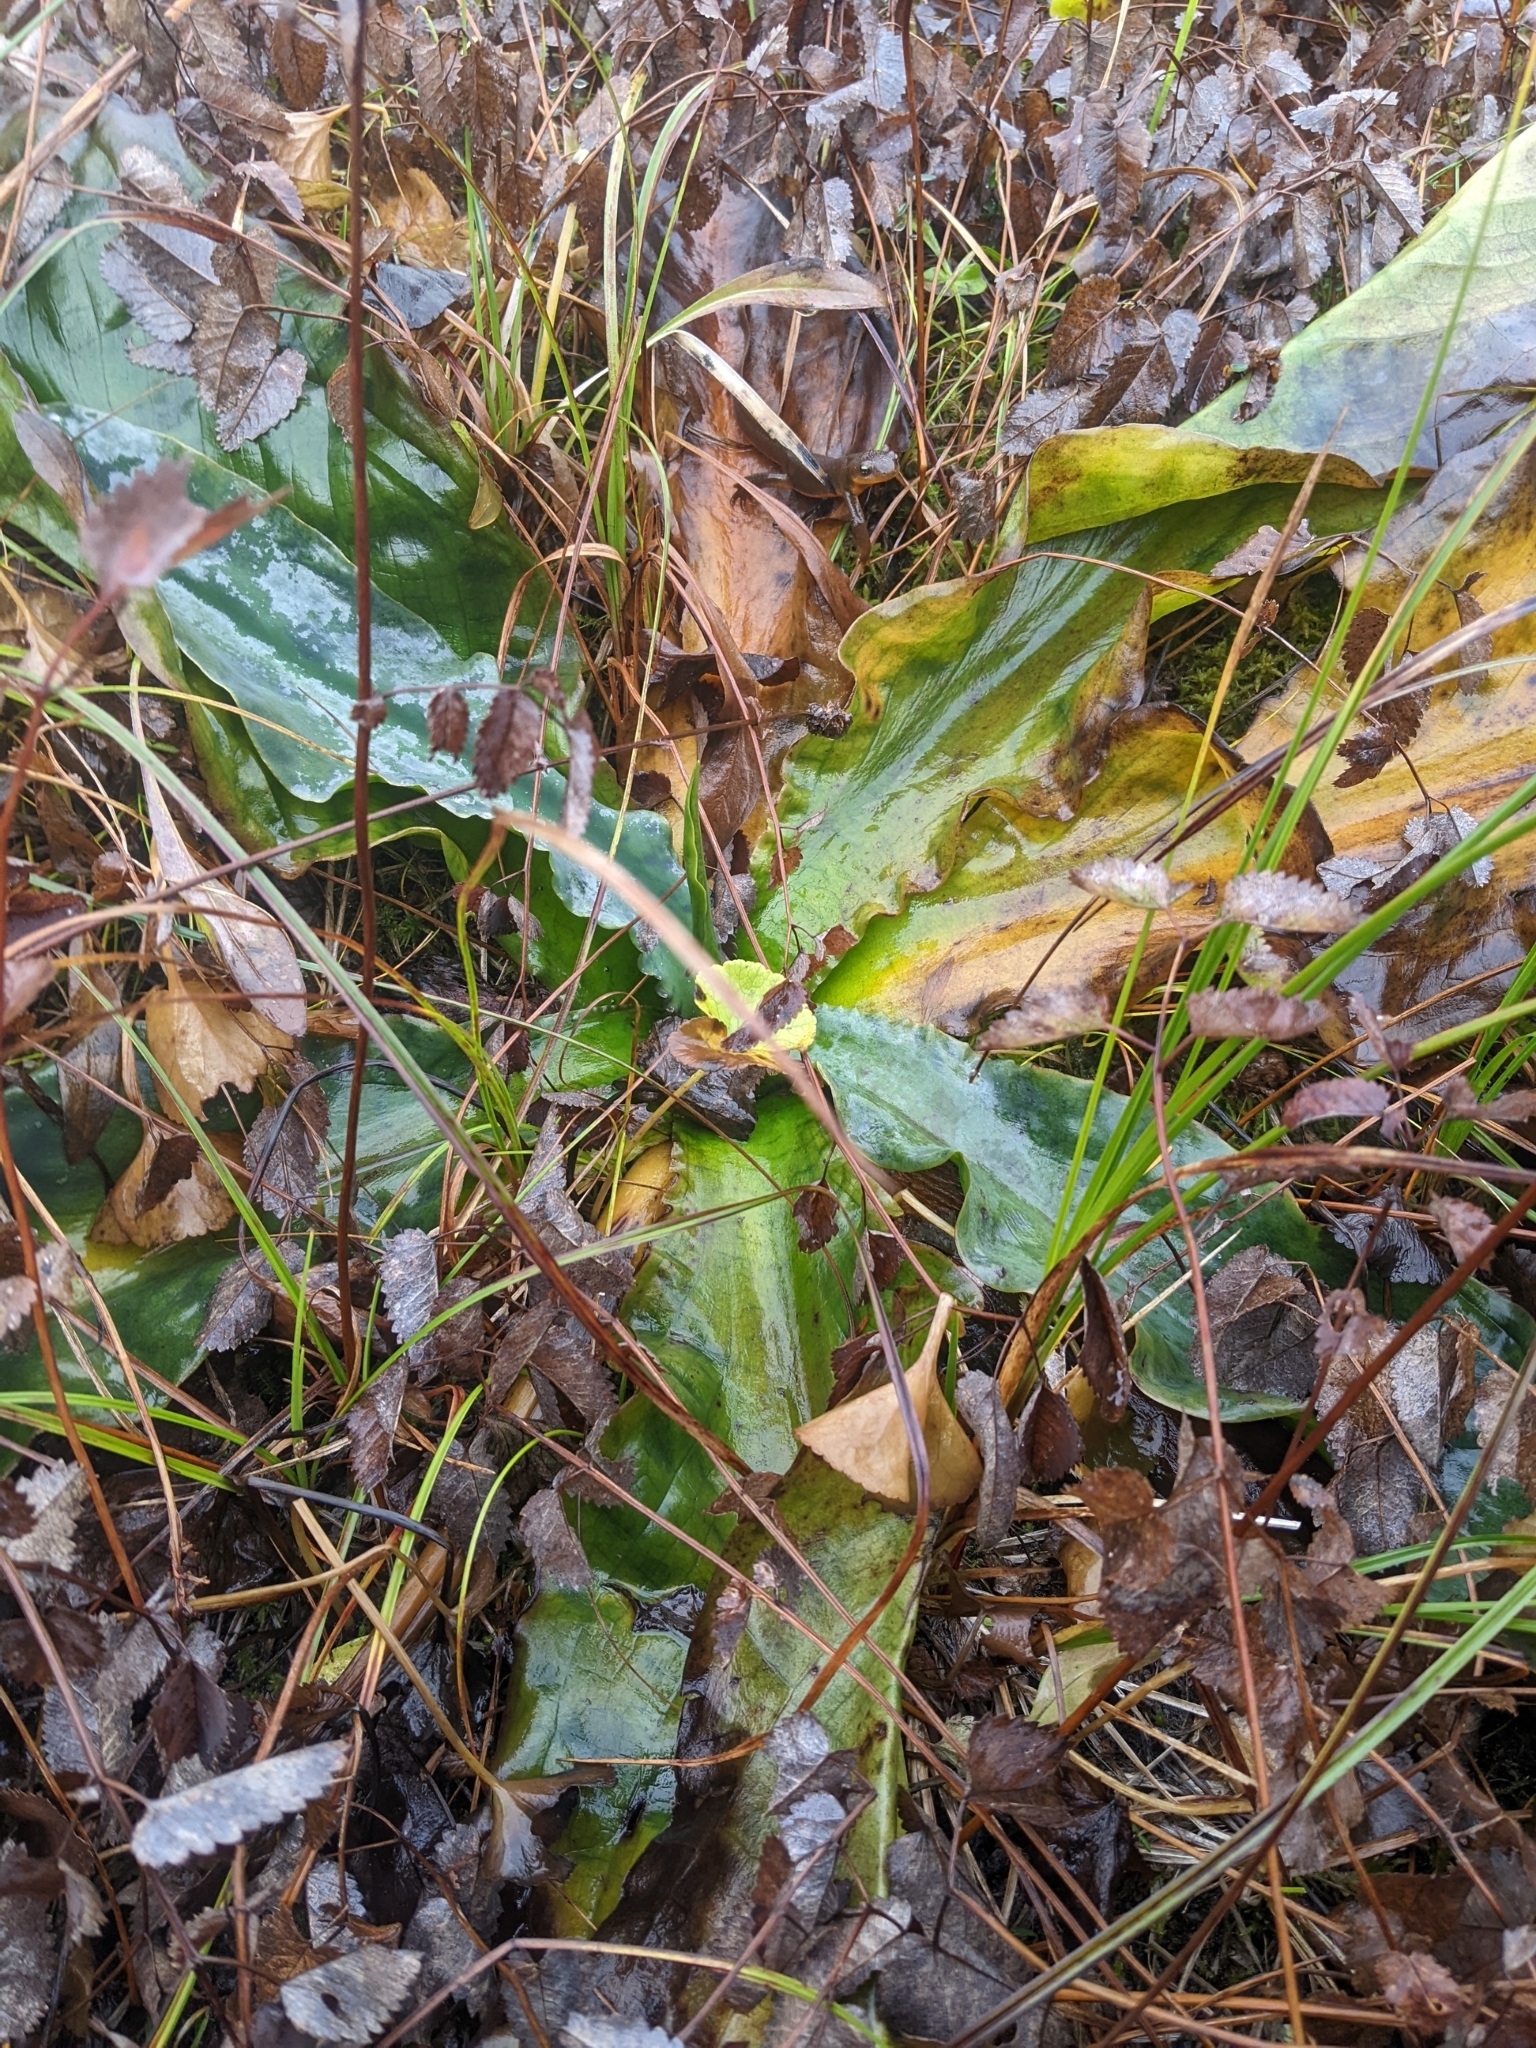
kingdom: Plantae
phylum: Tracheophyta
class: Liliopsida
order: Alismatales
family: Araceae
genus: Lysichiton
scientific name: Lysichiton americanus
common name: American skunk cabbage
